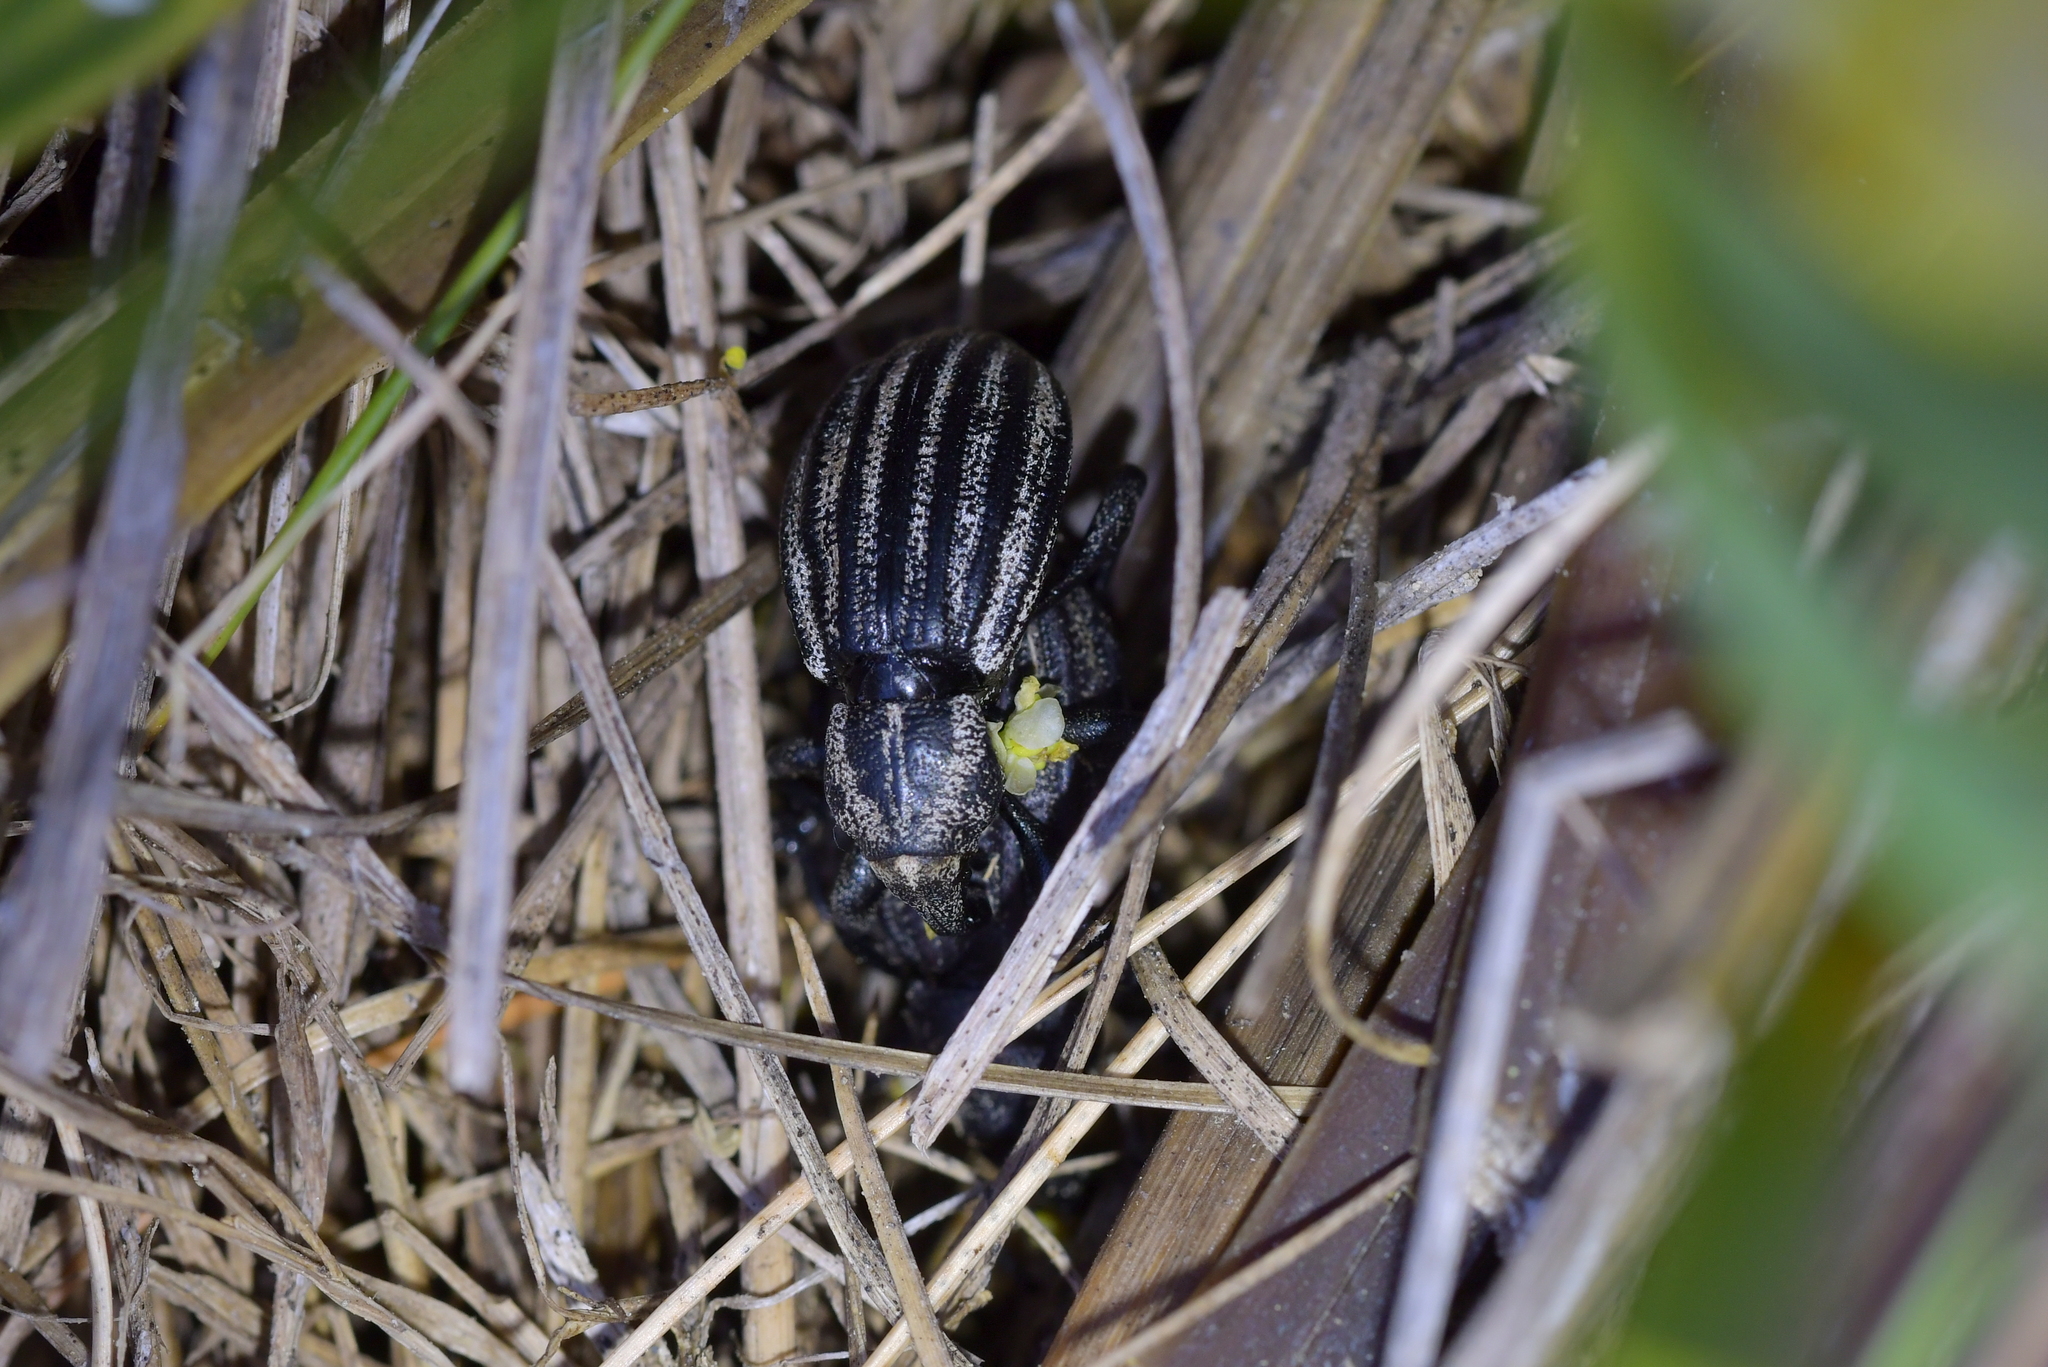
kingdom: Animalia
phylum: Arthropoda
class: Insecta
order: Coleoptera
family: Curculionidae
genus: Lyperobius
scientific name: Lyperobius fallax
